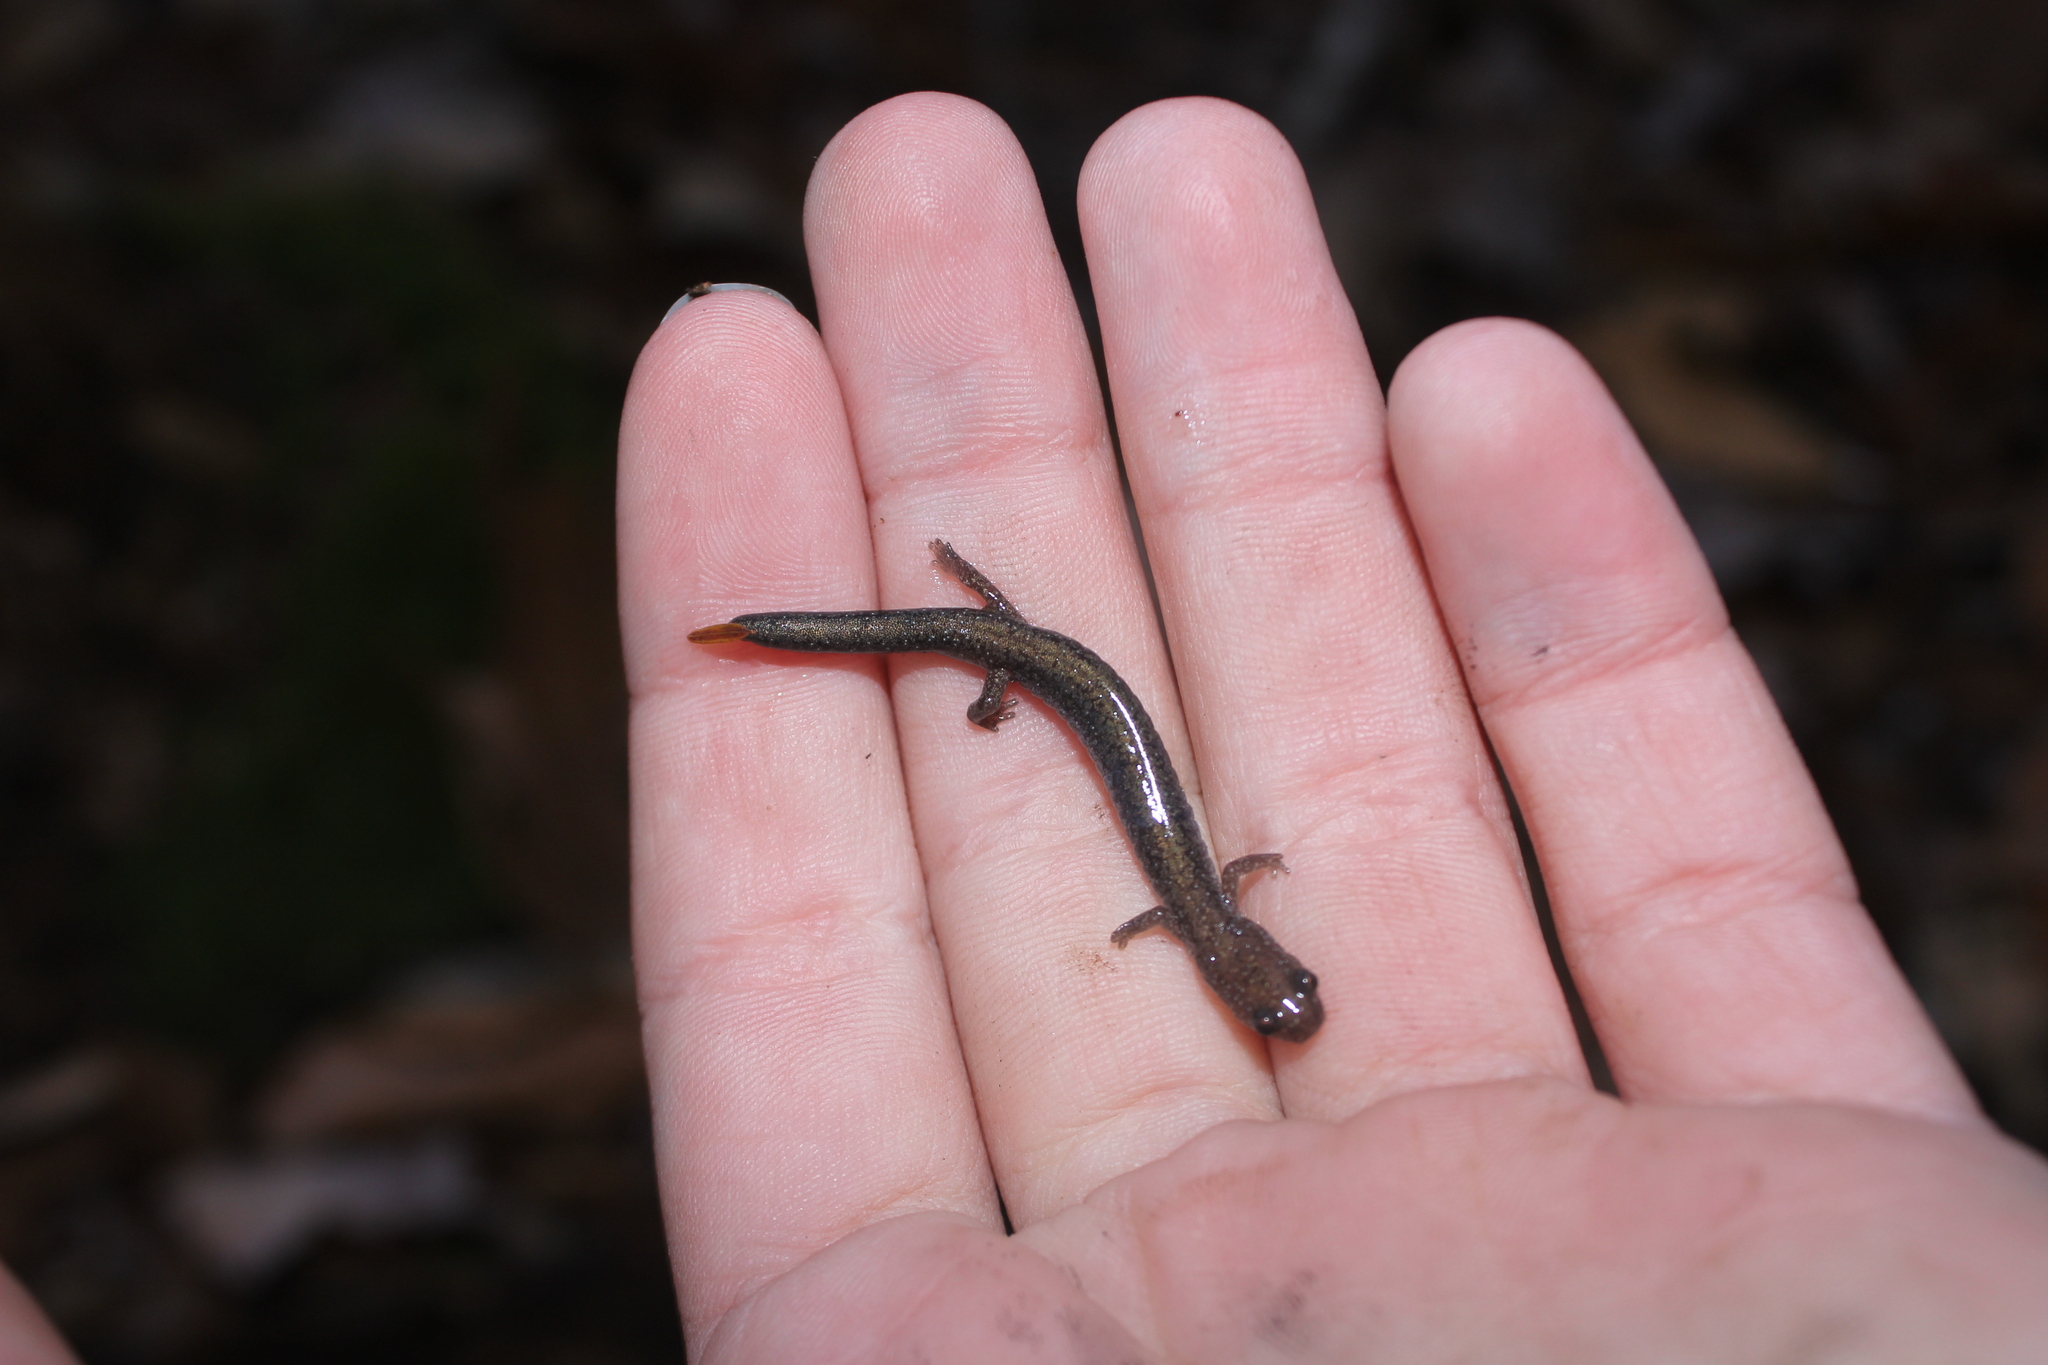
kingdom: Animalia
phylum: Chordata
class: Amphibia
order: Caudata
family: Plethodontidae
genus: Plethodon
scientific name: Plethodon cinereus
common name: Redback salamander
